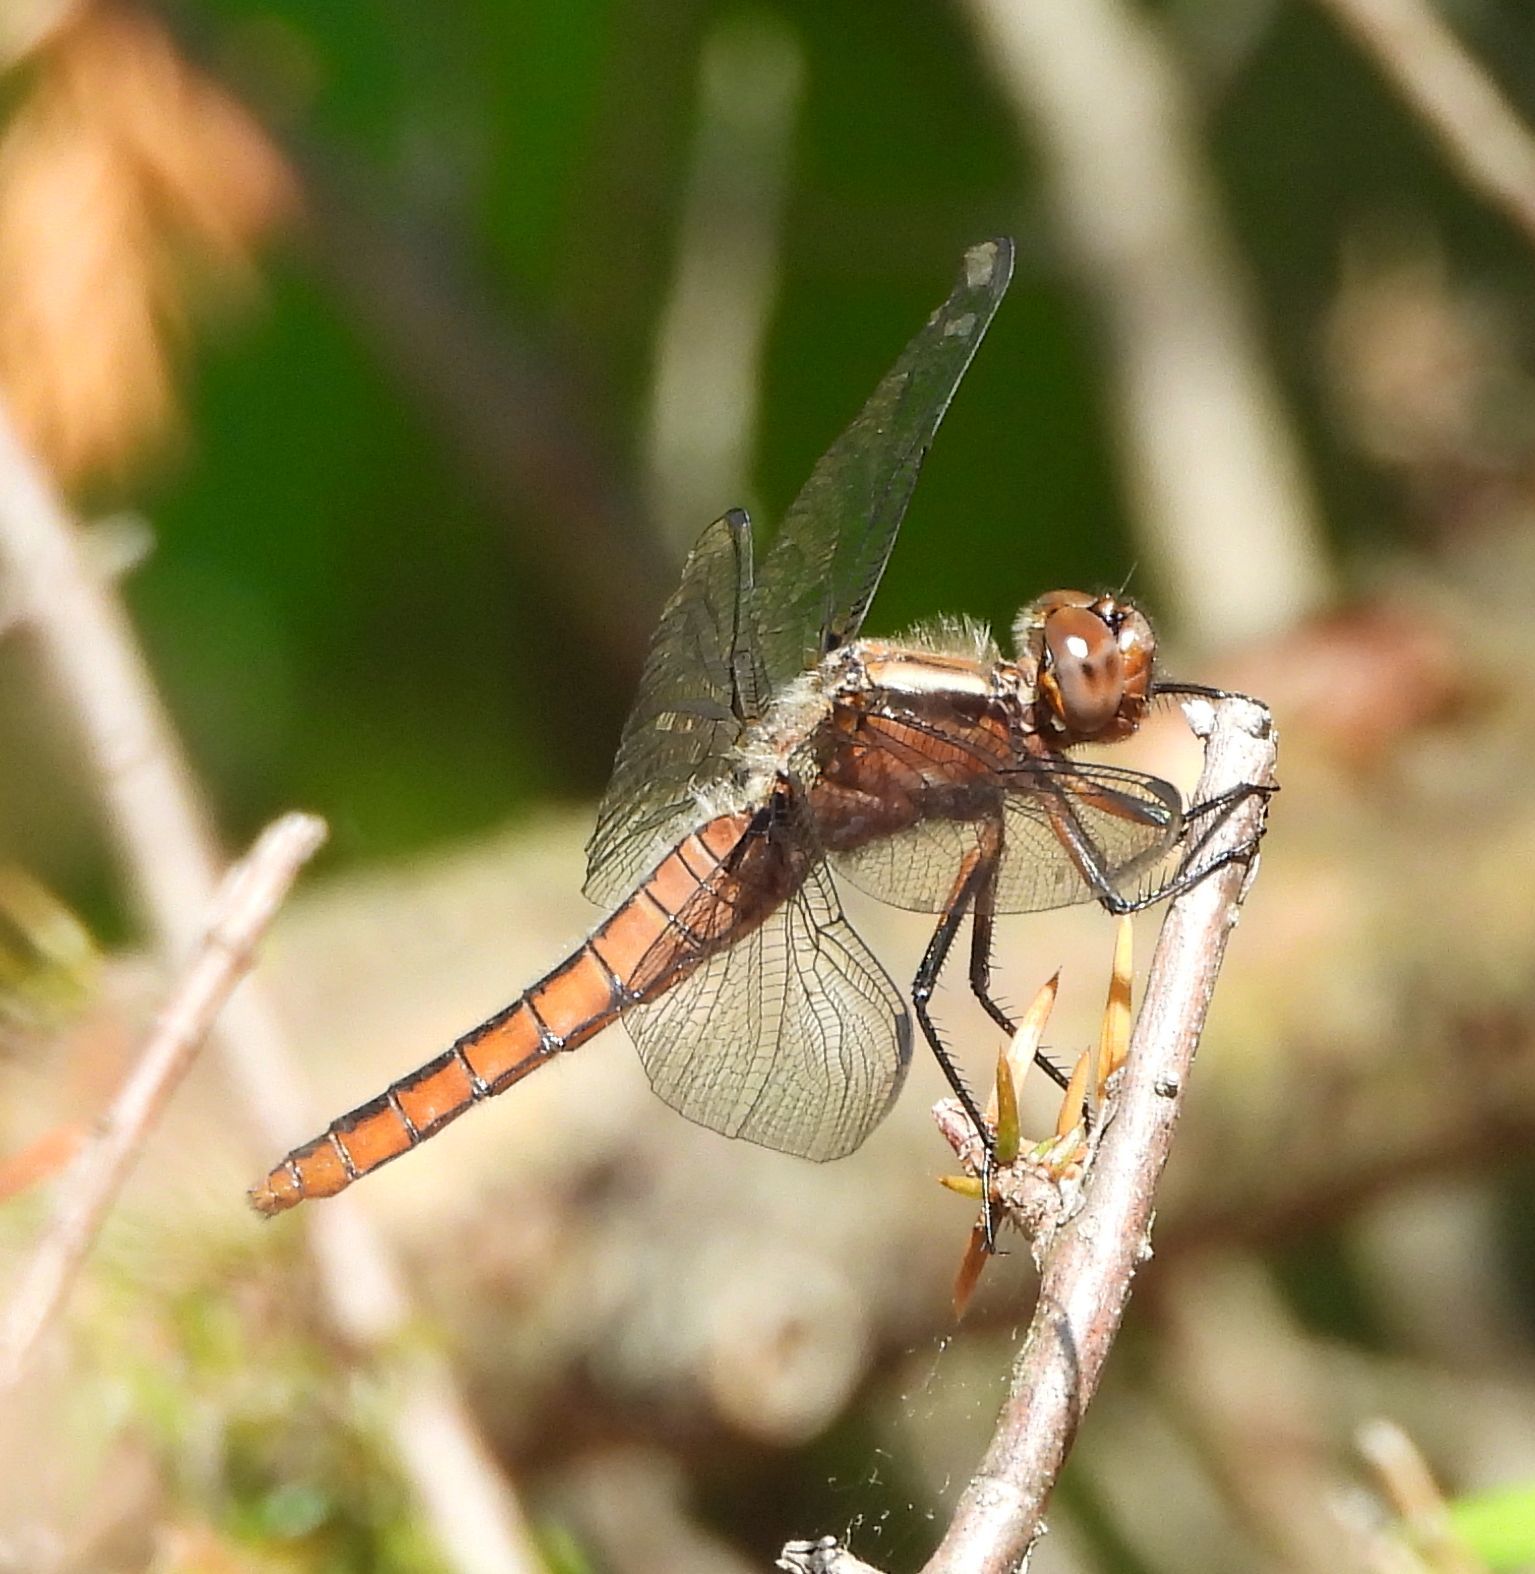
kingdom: Animalia
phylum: Arthropoda
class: Insecta
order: Odonata
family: Libellulidae
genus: Ladona
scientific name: Ladona julia
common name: Chalk-fronted corporal
